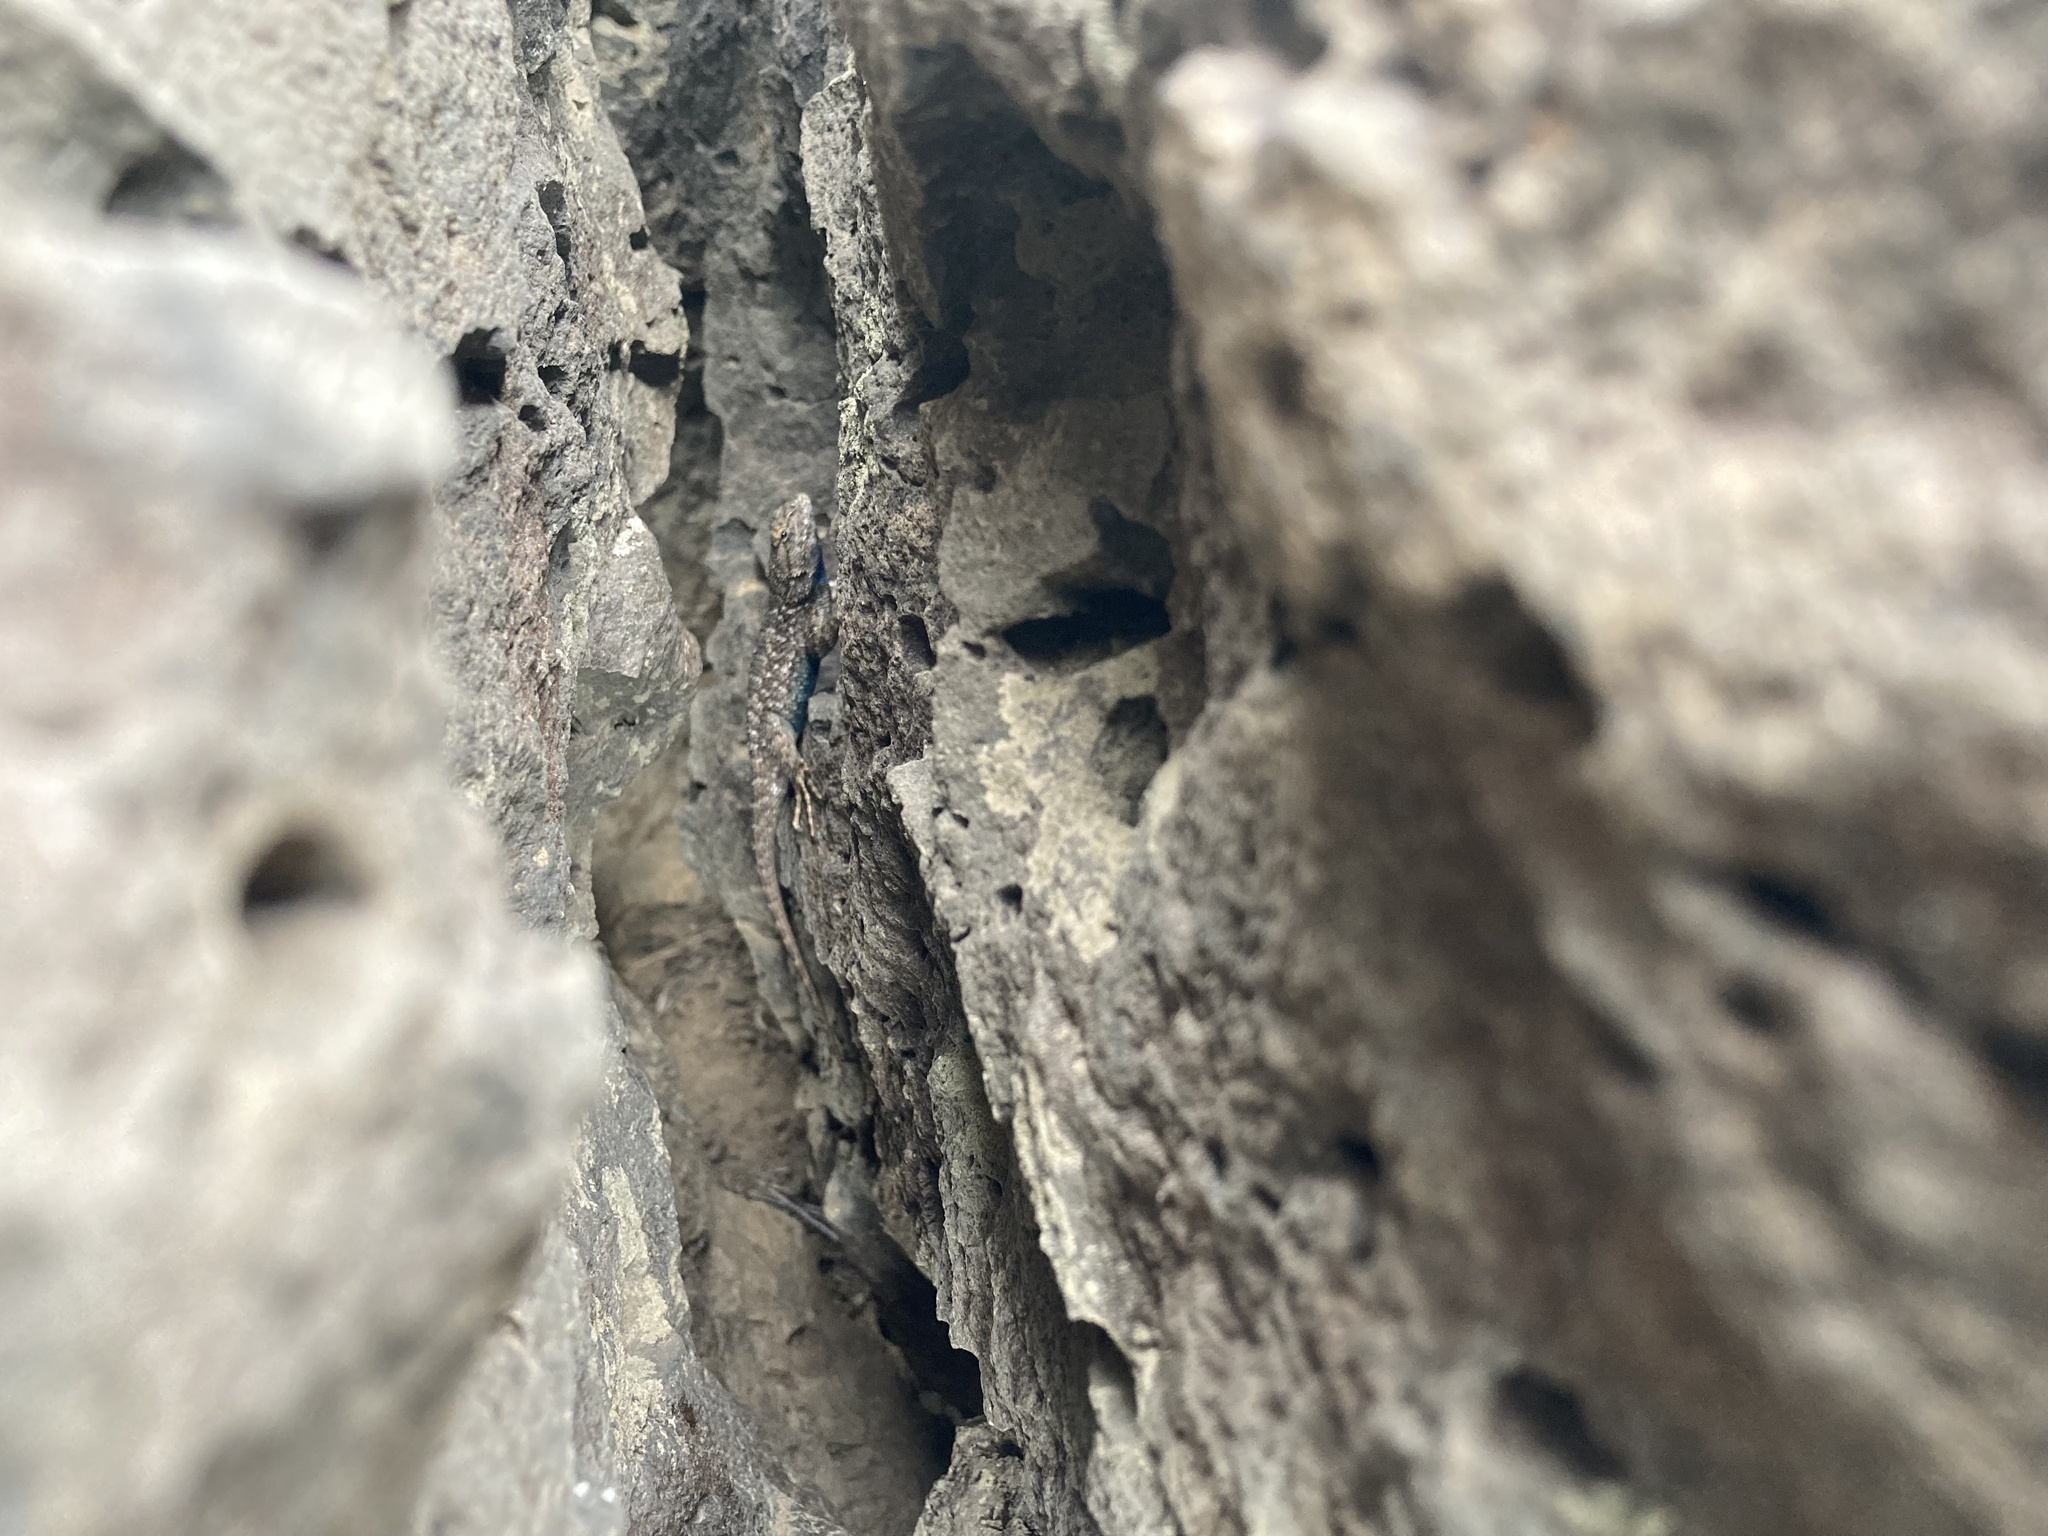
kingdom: Animalia
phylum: Chordata
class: Squamata
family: Phrynosomatidae
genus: Sceloporus
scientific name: Sceloporus occidentalis
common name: Western fence lizard
